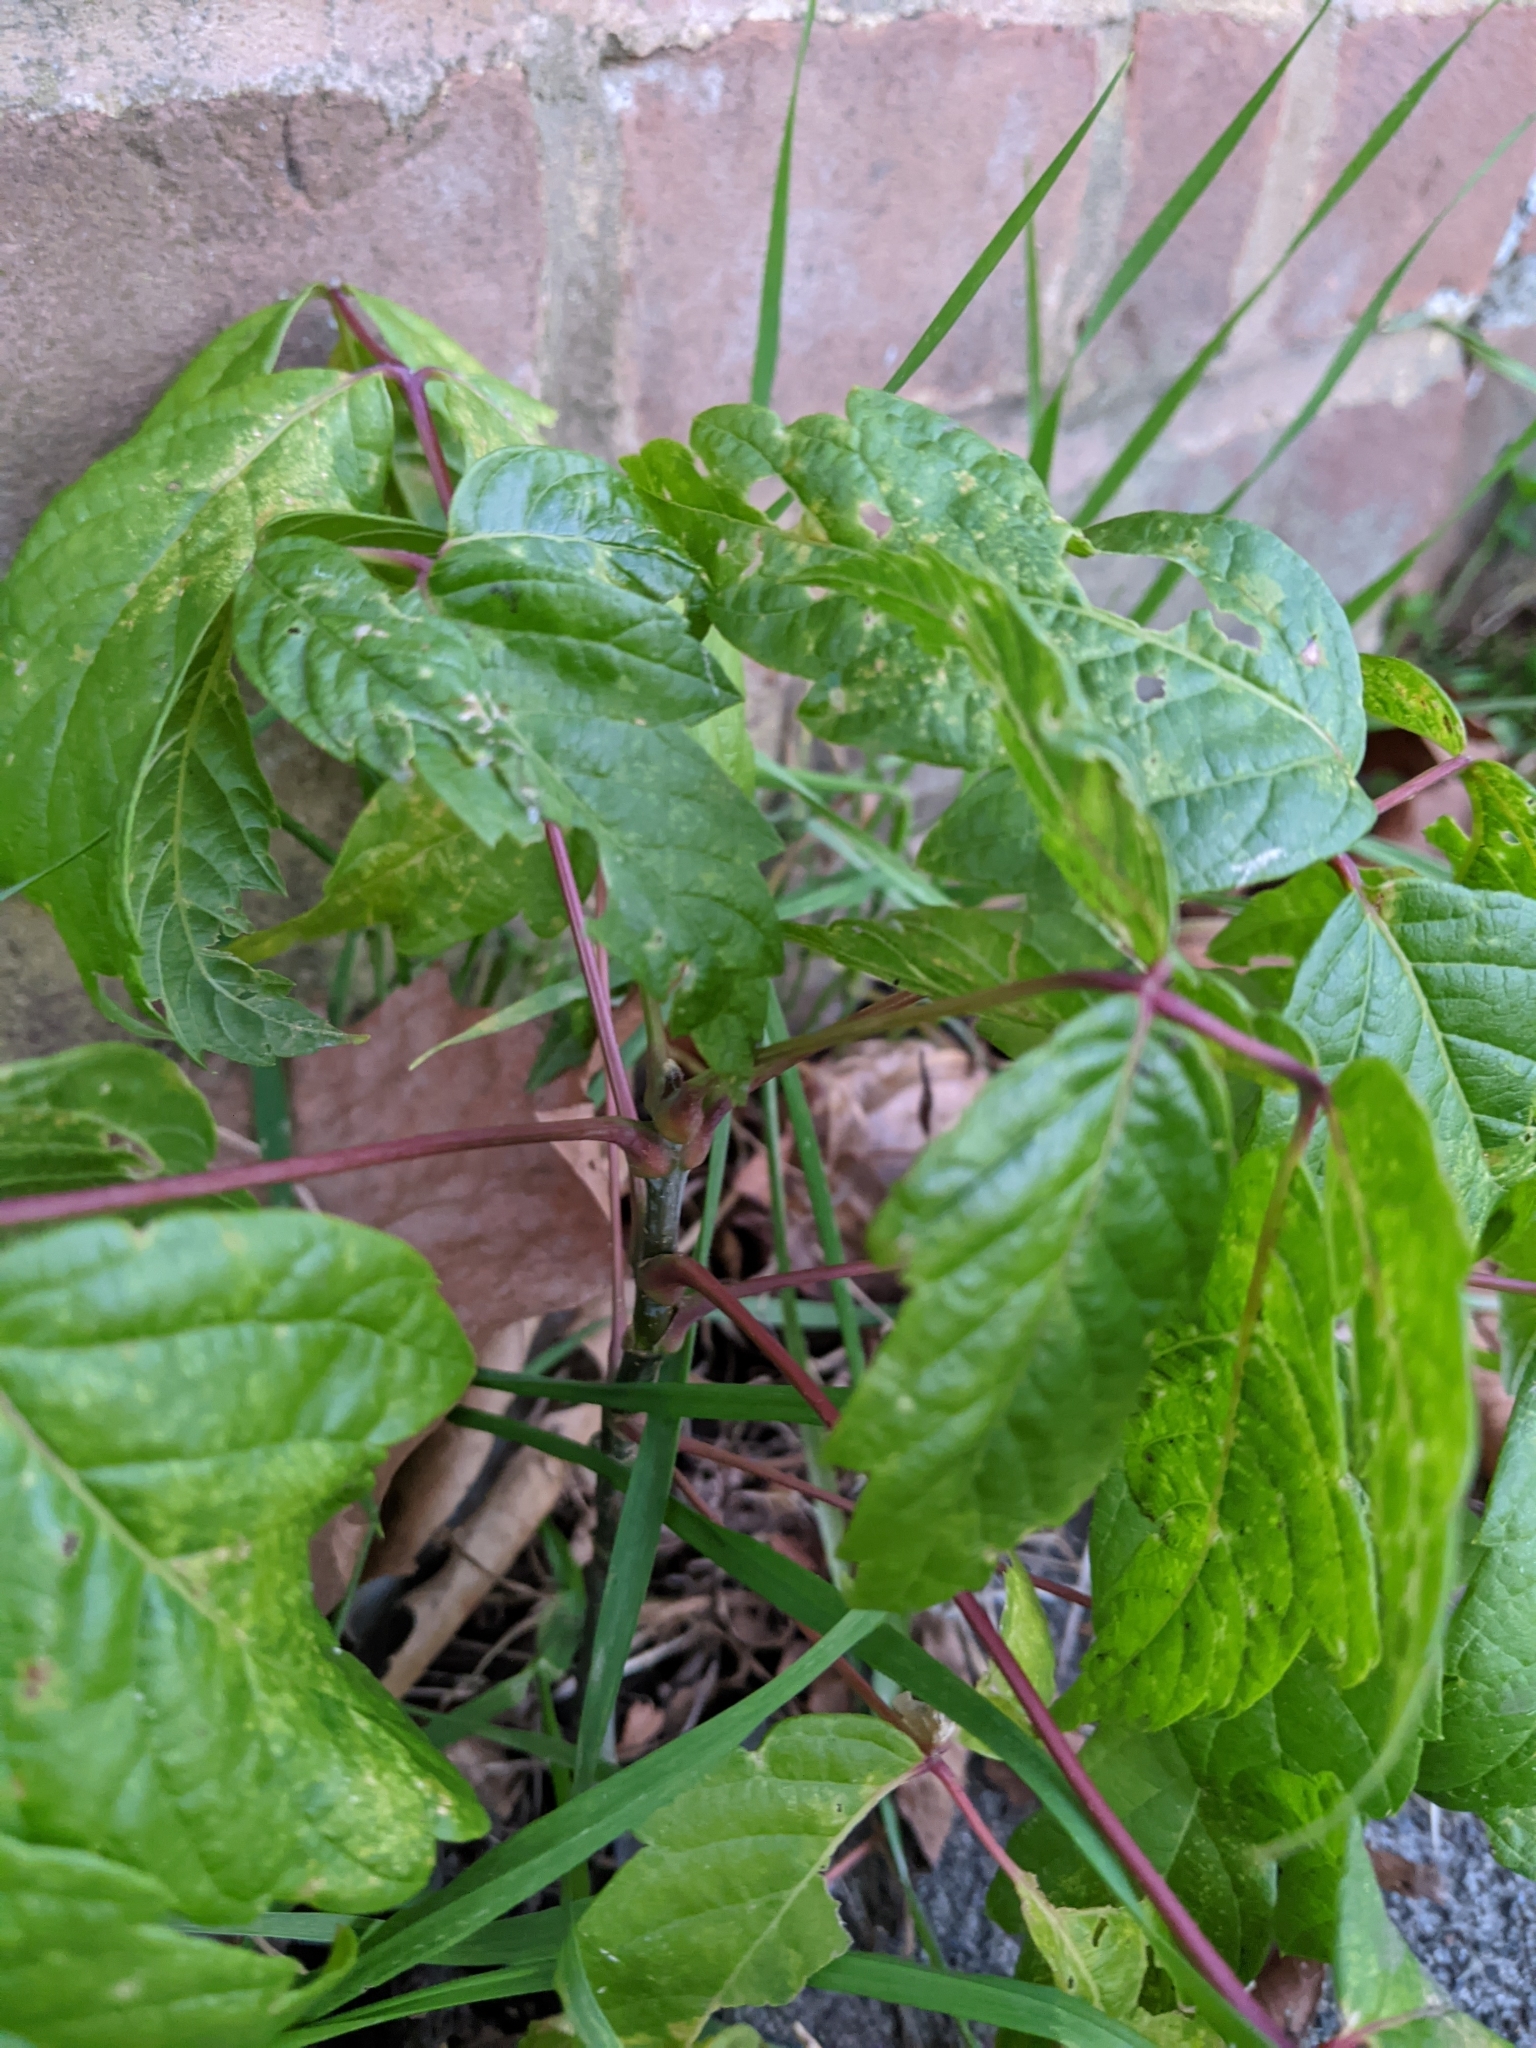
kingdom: Plantae
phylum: Tracheophyta
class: Magnoliopsida
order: Sapindales
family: Sapindaceae
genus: Acer
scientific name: Acer negundo
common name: Ashleaf maple
